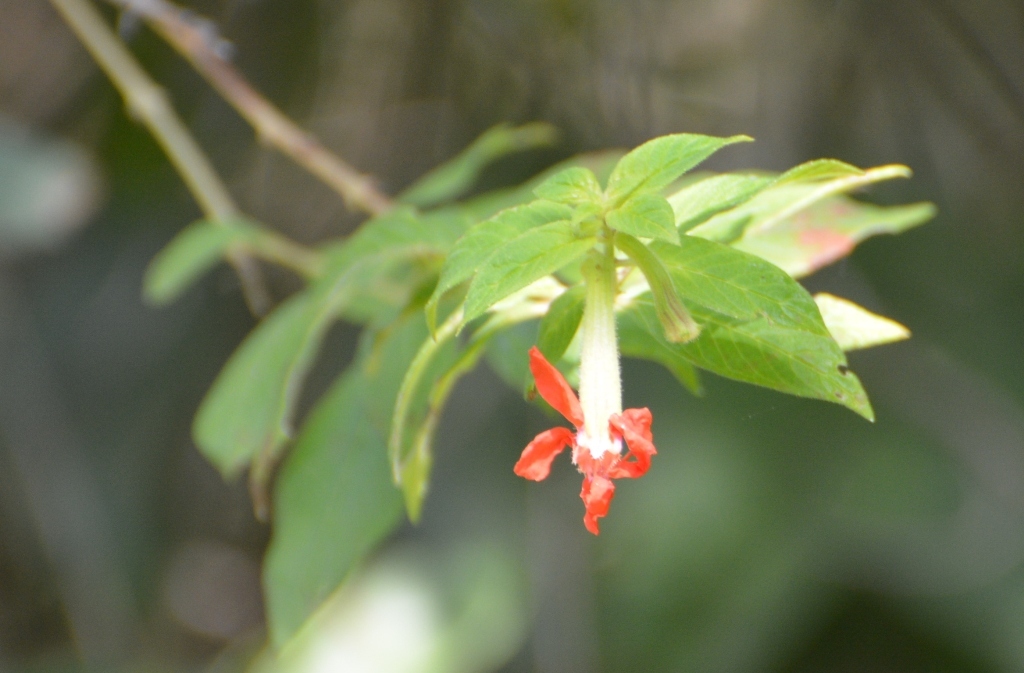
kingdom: Plantae
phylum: Tracheophyta
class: Magnoliopsida
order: Myrtales
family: Lythraceae
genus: Cuphea
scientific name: Cuphea intermedia
